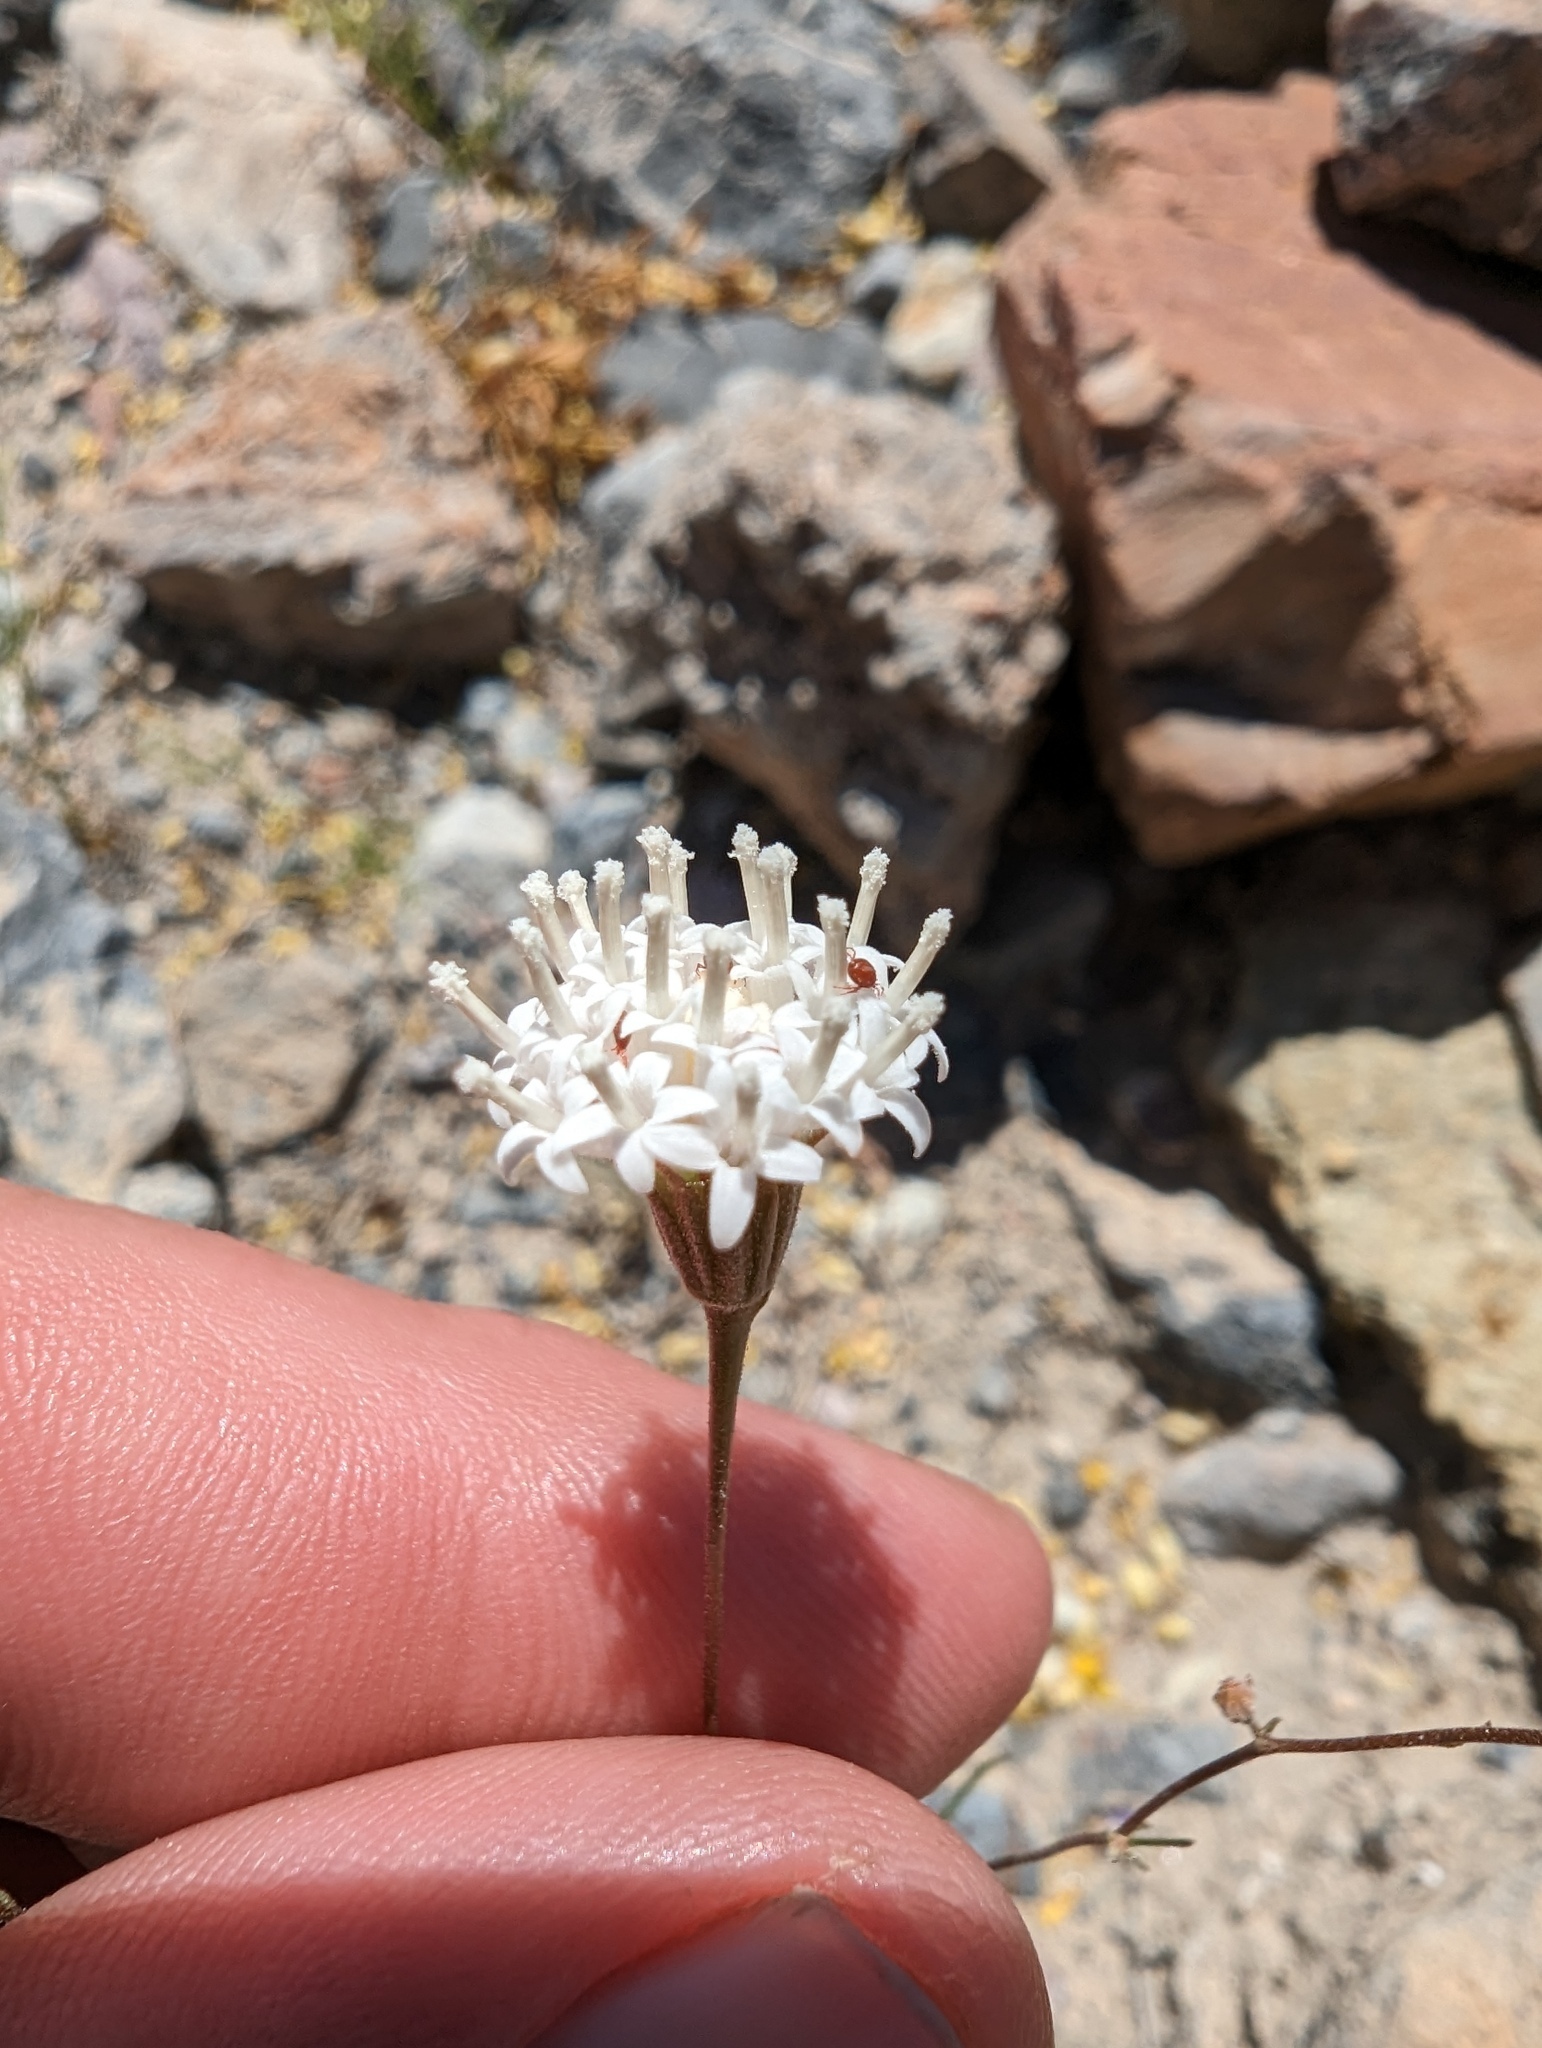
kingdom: Plantae
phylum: Tracheophyta
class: Magnoliopsida
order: Asterales
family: Asteraceae
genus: Chaenactis
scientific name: Chaenactis carphoclinia
